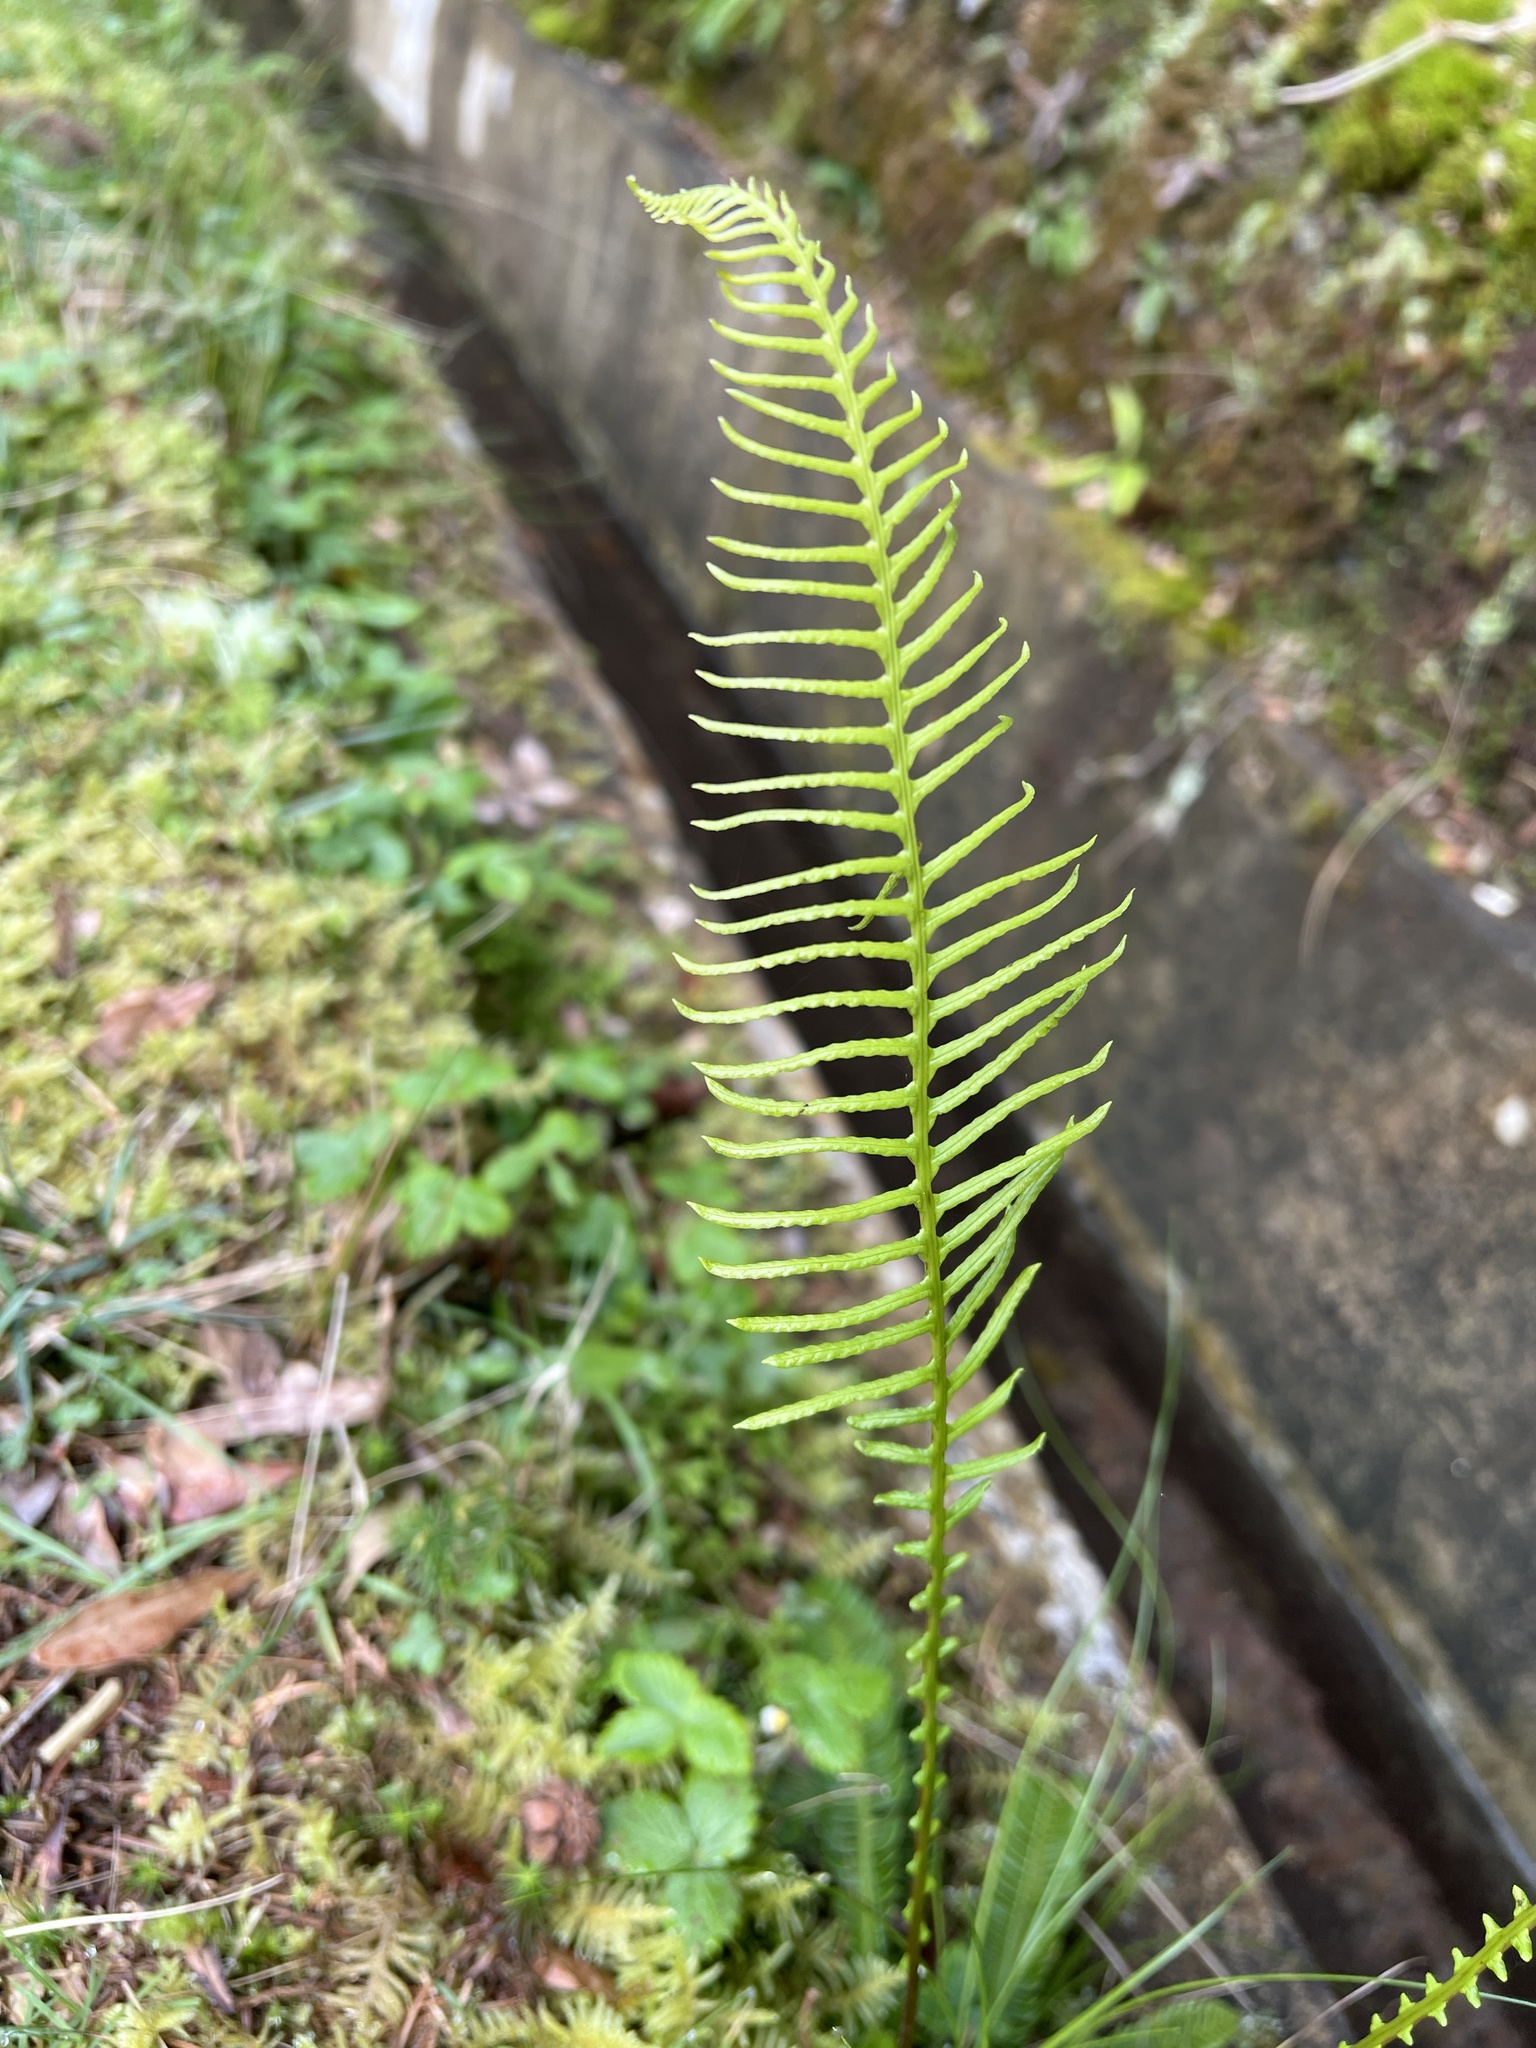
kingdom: Plantae
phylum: Tracheophyta
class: Polypodiopsida
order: Polypodiales
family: Blechnaceae
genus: Struthiopteris
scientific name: Struthiopteris spicant
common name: Deer fern
